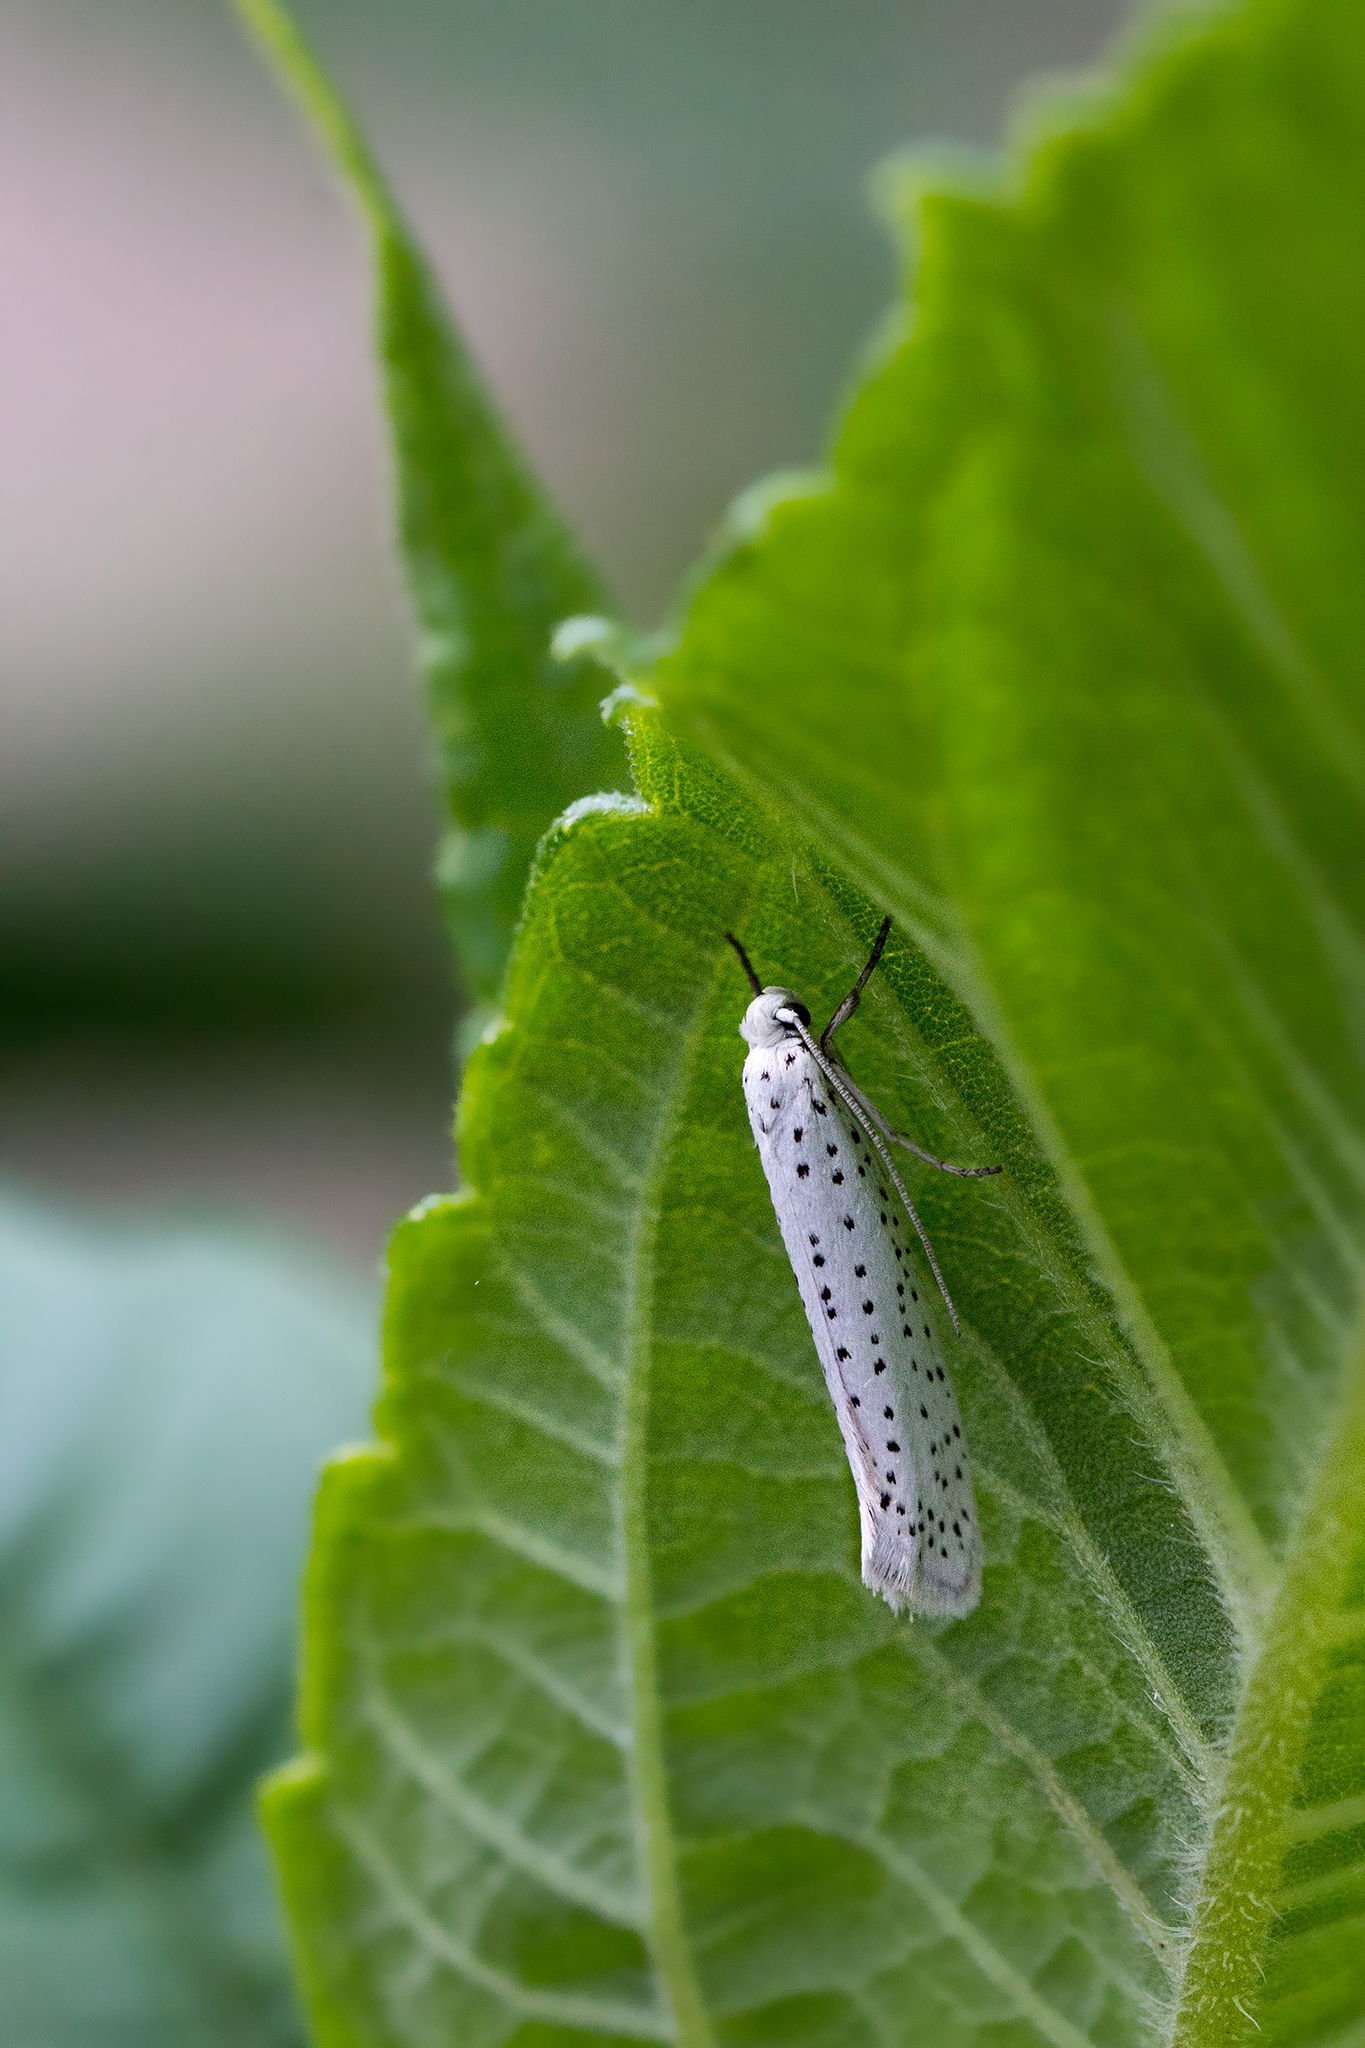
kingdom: Animalia
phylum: Arthropoda
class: Insecta
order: Lepidoptera
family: Yponomeutidae
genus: Yponomeuta
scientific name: Yponomeuta evonymella
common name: Bird-cherry ermine
